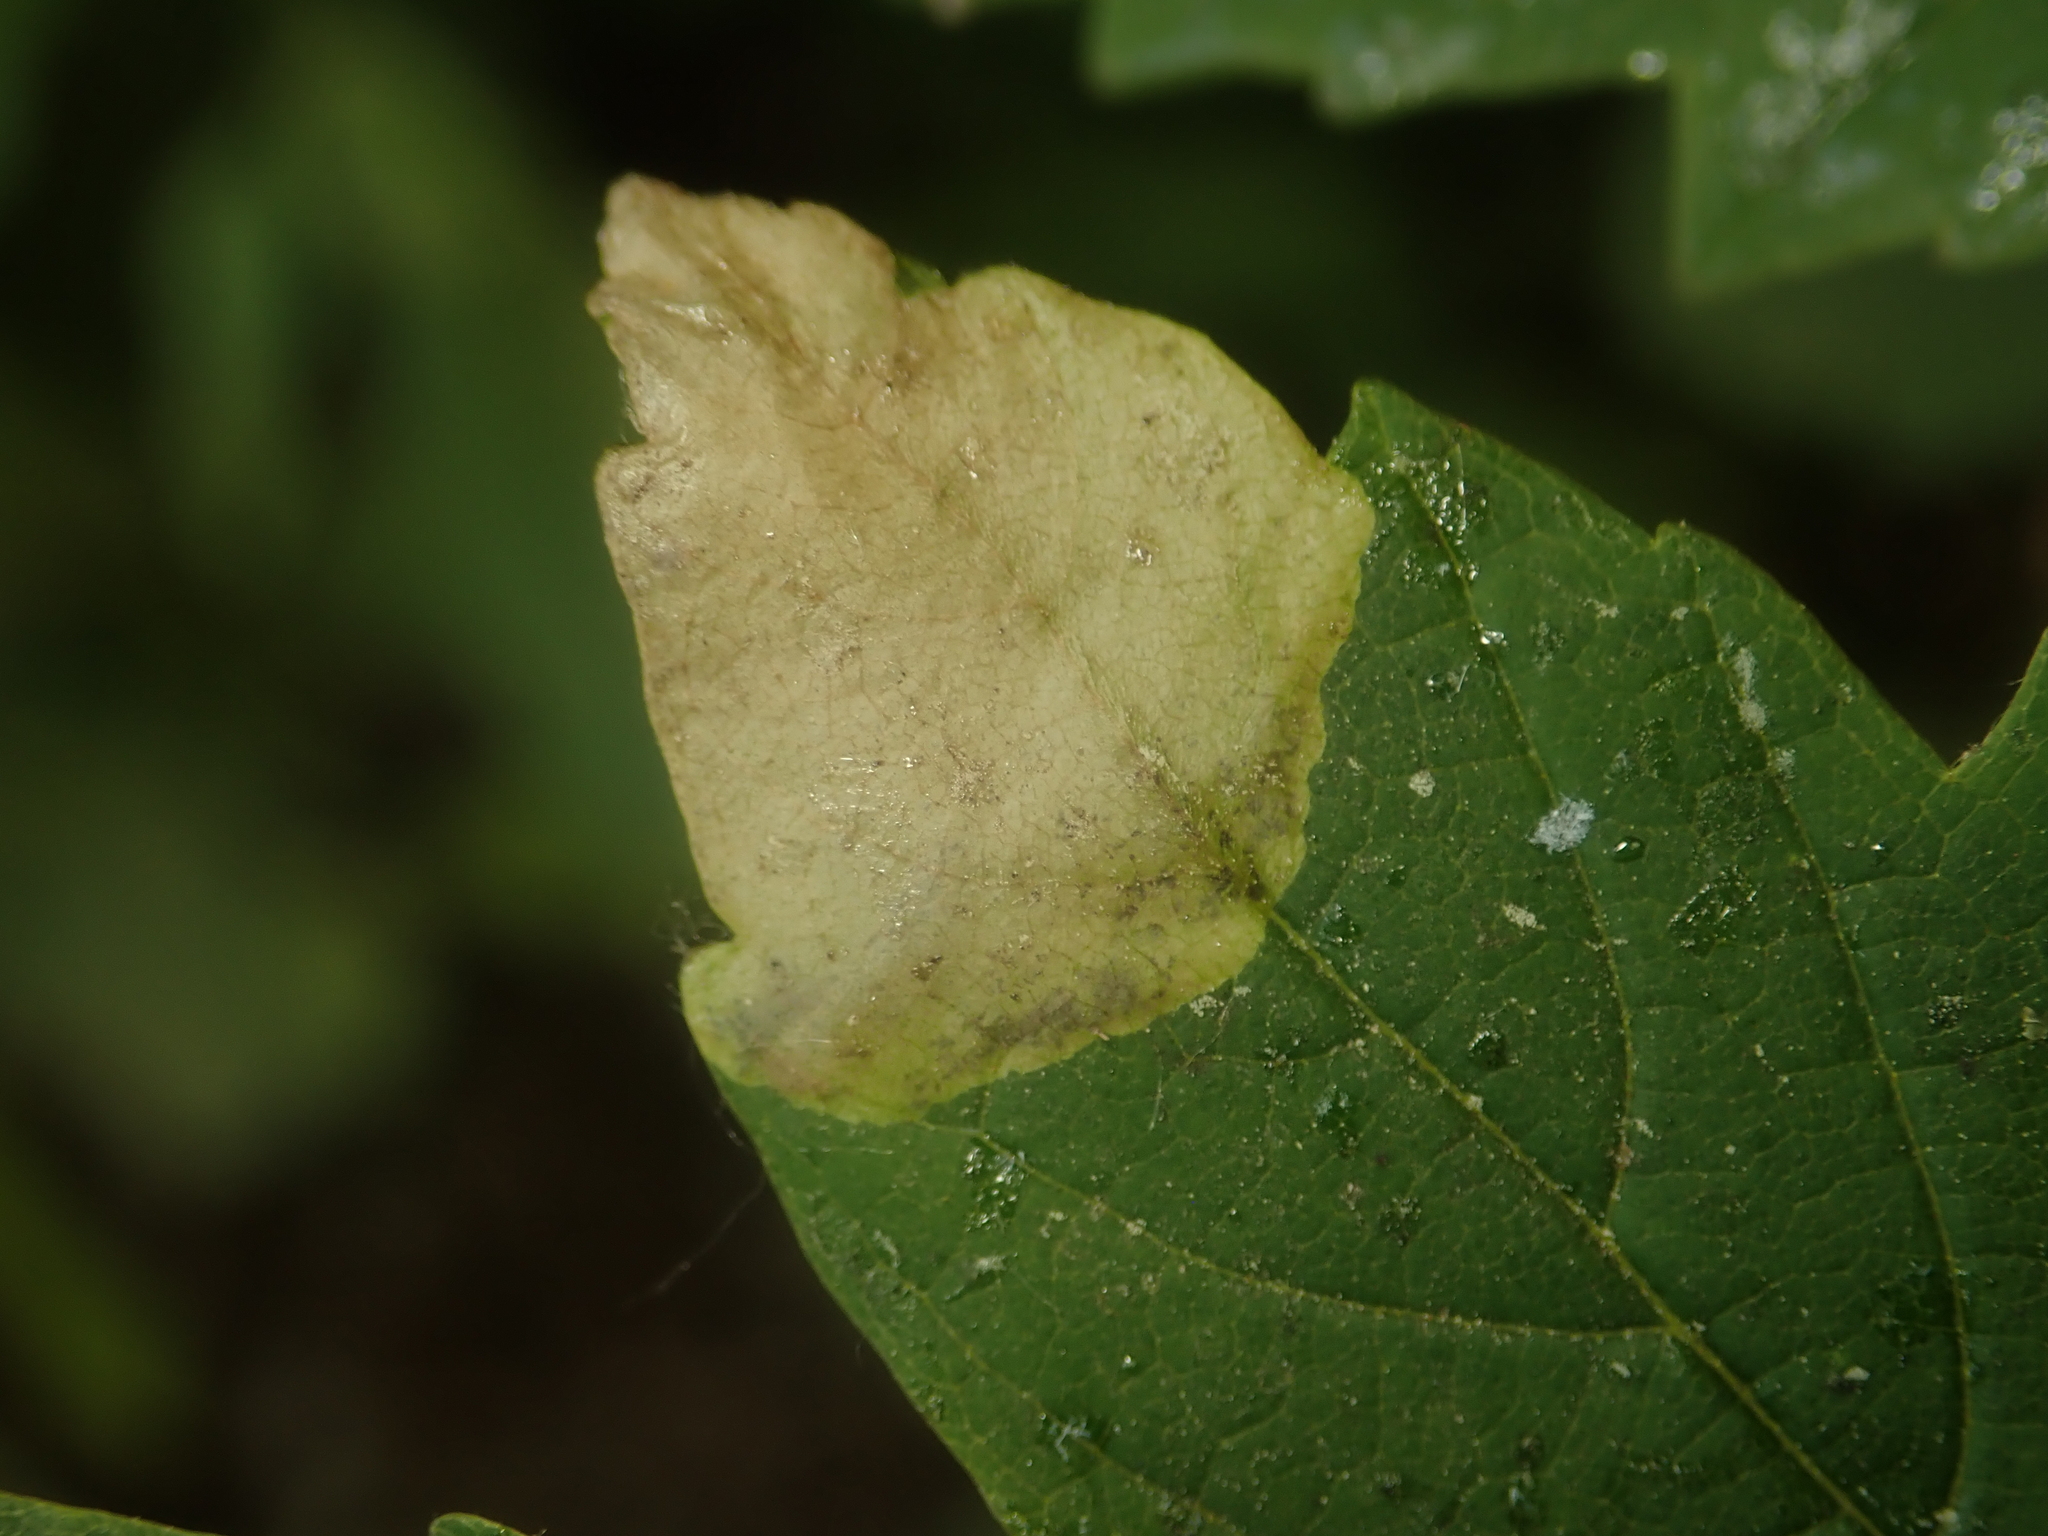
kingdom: Animalia
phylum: Arthropoda
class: Insecta
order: Hymenoptera
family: Tenthredinidae
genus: Heterarthrus
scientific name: Heterarthrus fiora
